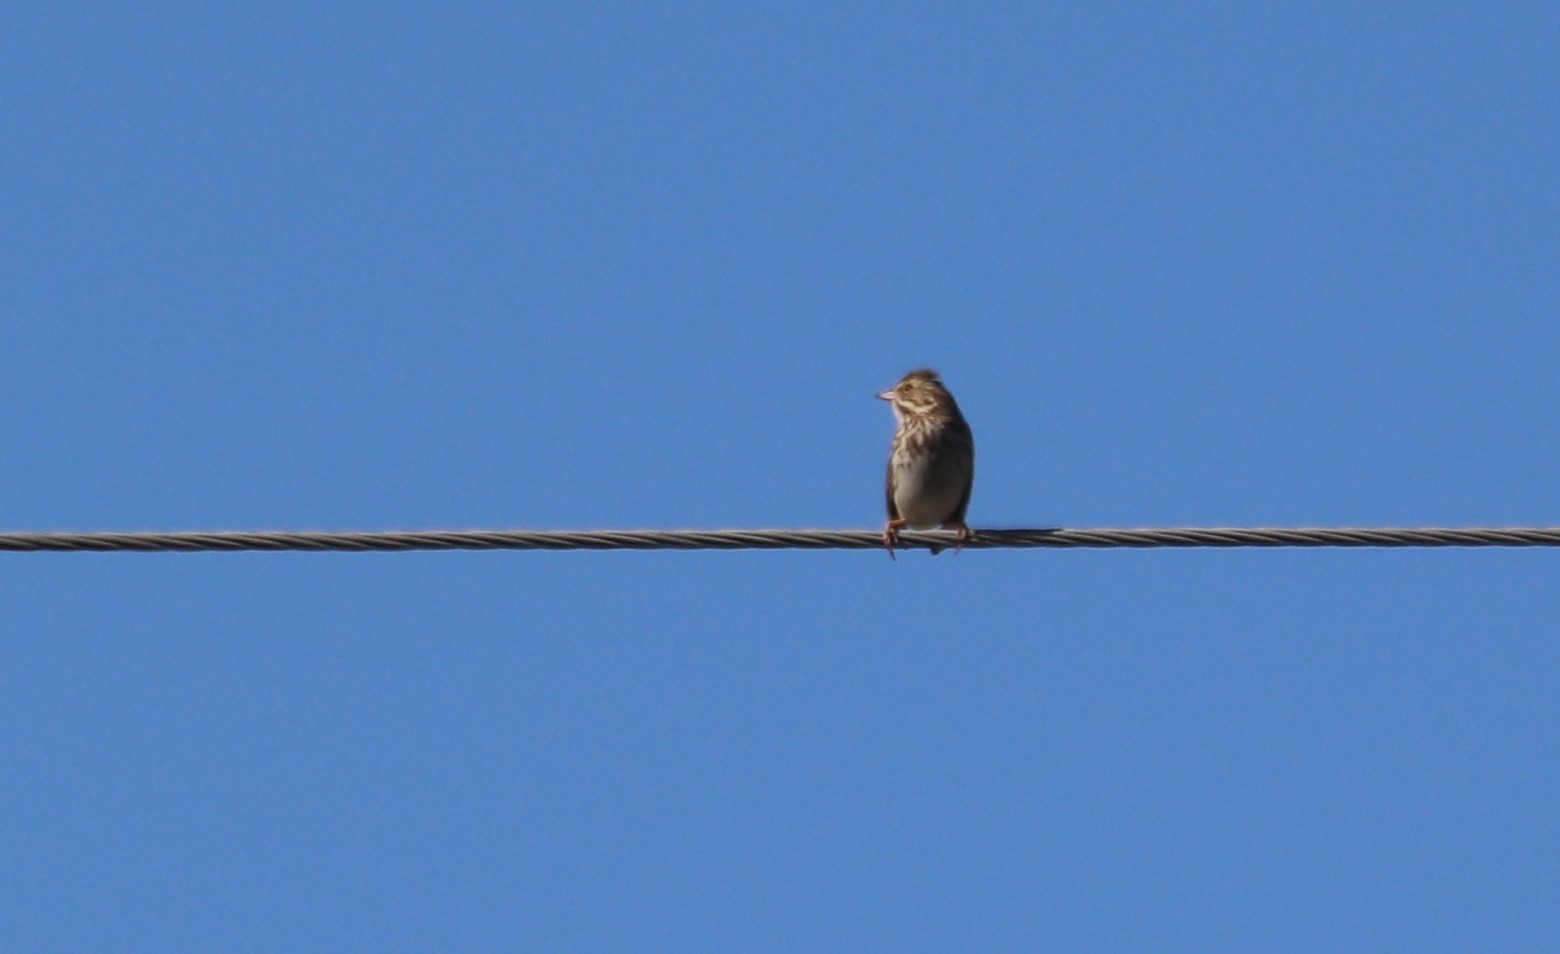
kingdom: Animalia
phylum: Chordata
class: Aves
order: Passeriformes
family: Passerellidae
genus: Passerculus
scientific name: Passerculus sandwichensis
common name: Savannah sparrow
